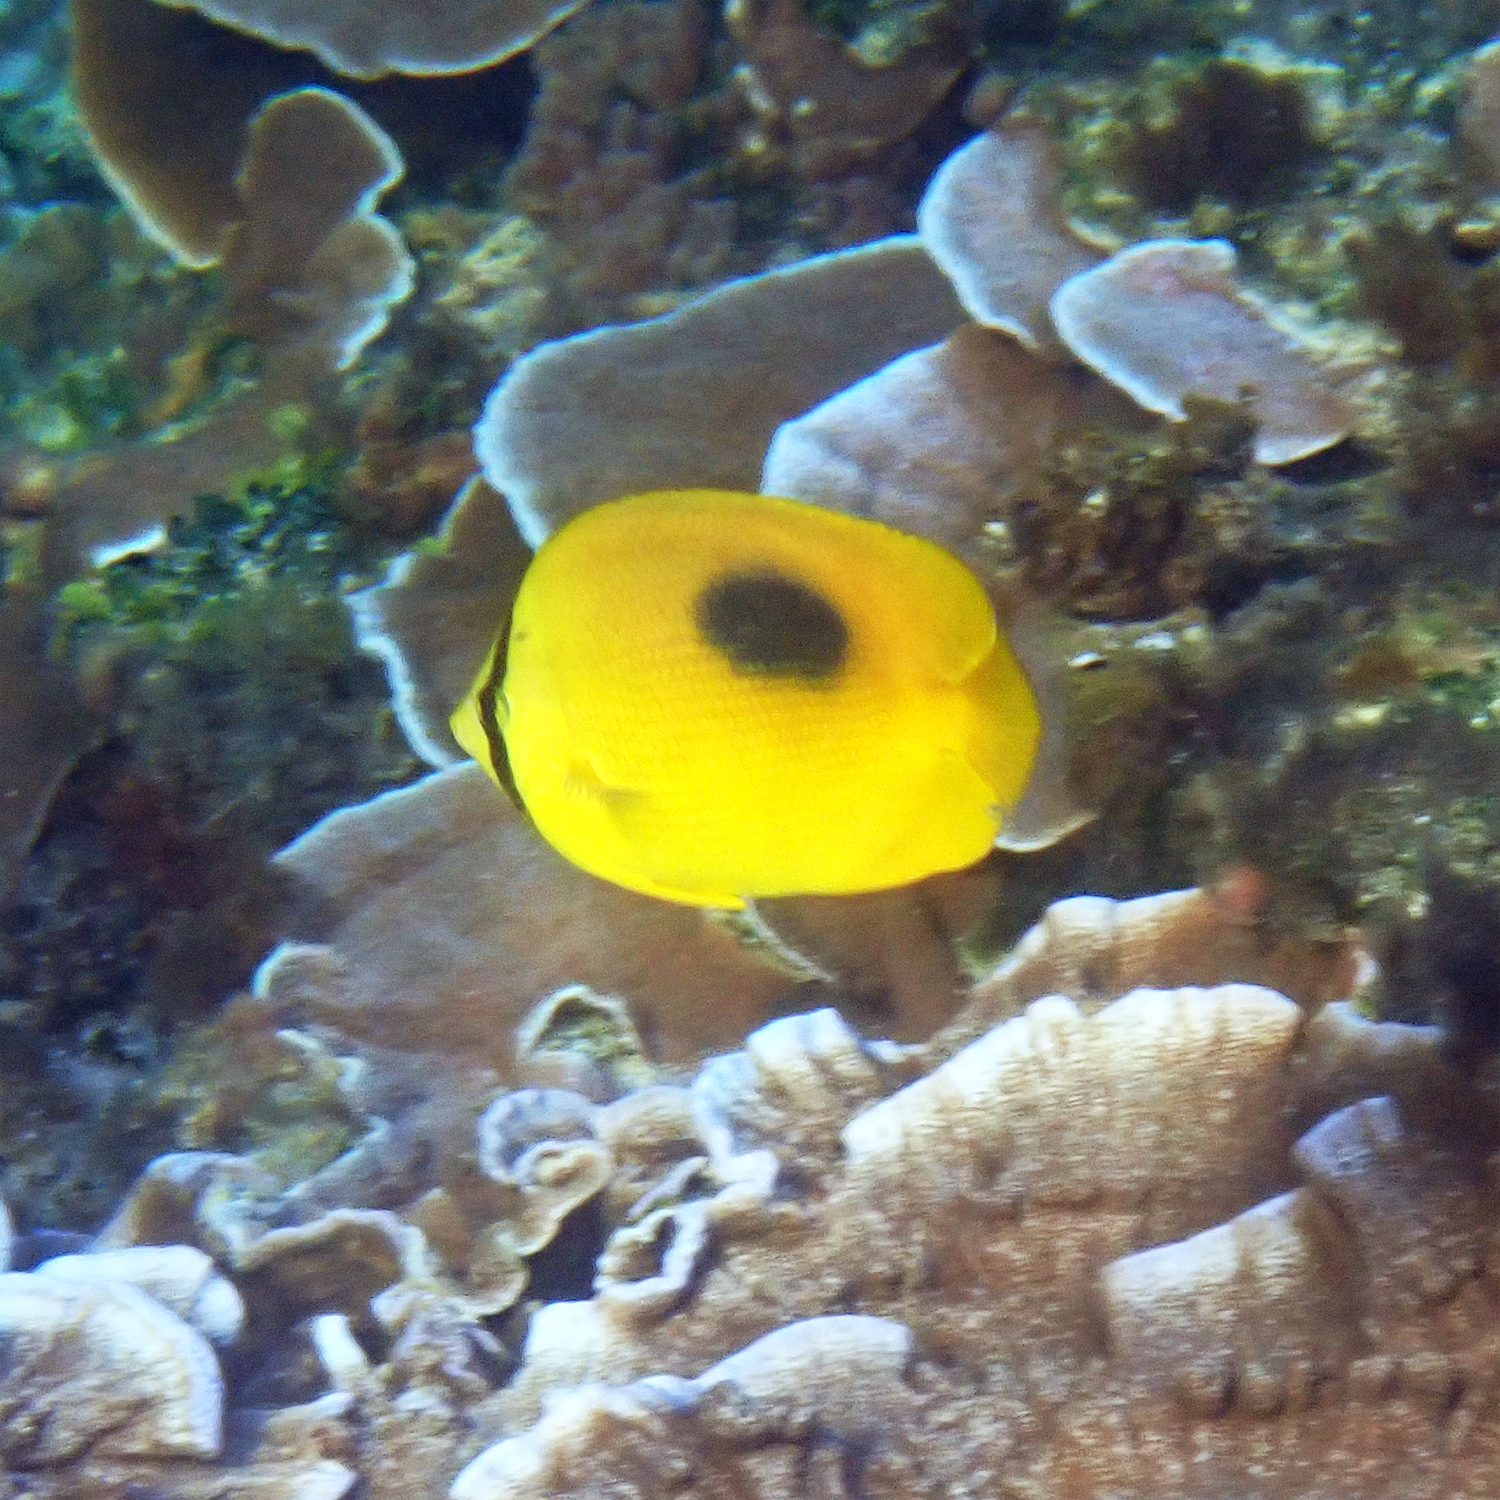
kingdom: Animalia
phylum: Chordata
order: Perciformes
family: Chaetodontidae
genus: Chaetodon
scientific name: Chaetodon speculum
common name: Mirror butterflyfish
